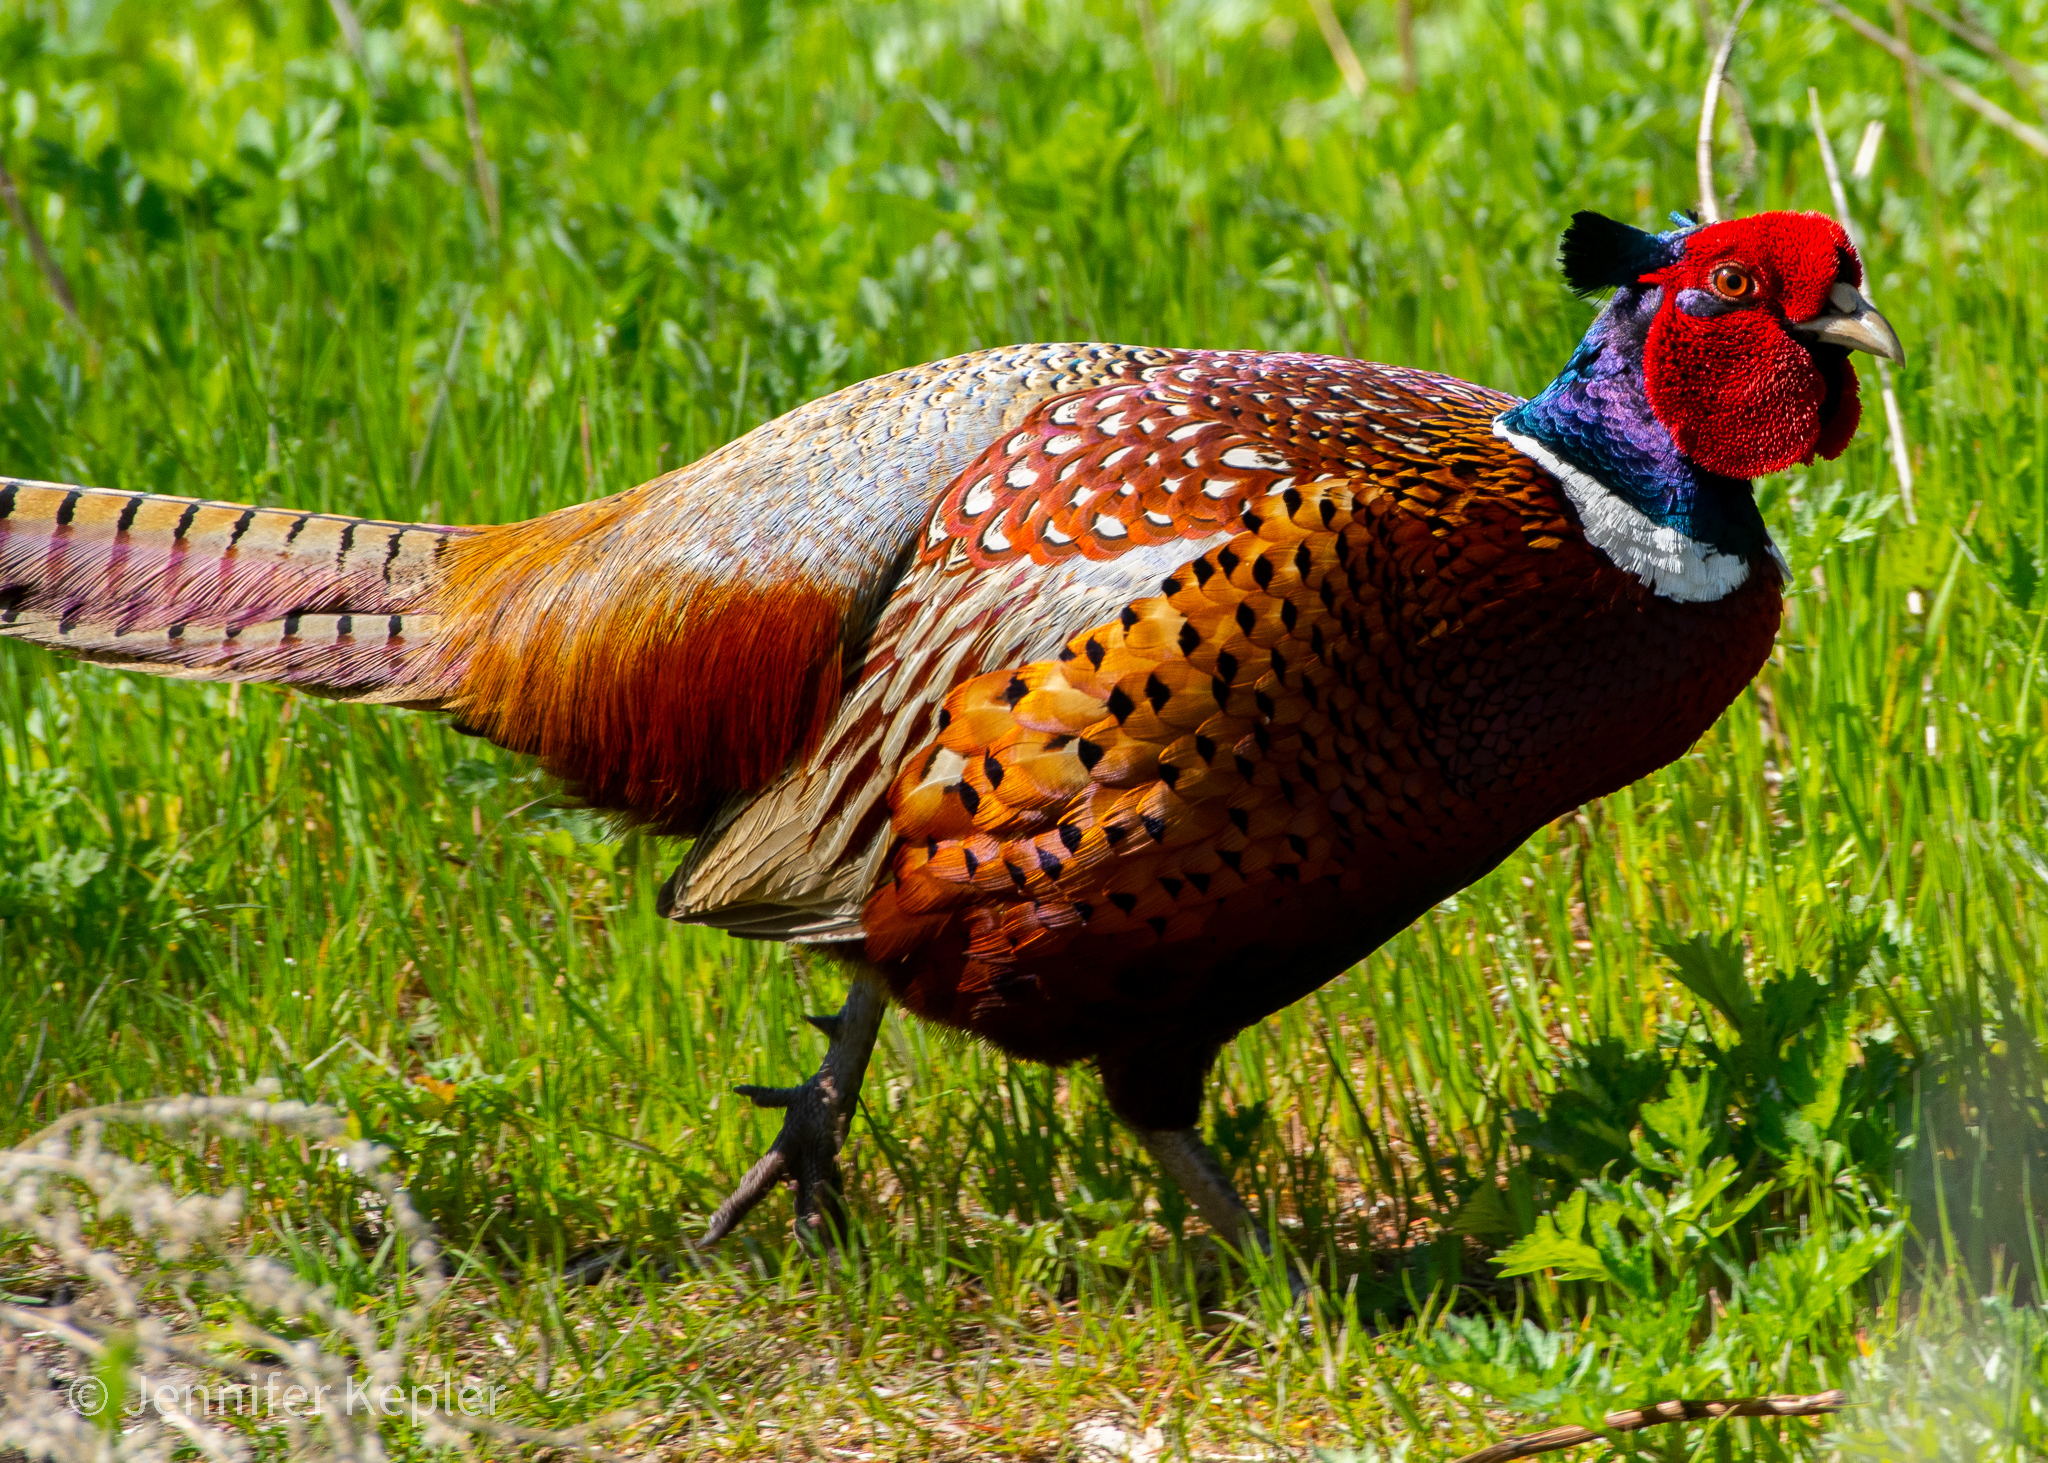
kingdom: Animalia
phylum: Chordata
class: Aves
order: Galliformes
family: Phasianidae
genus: Phasianus
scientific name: Phasianus colchicus
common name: Common pheasant
